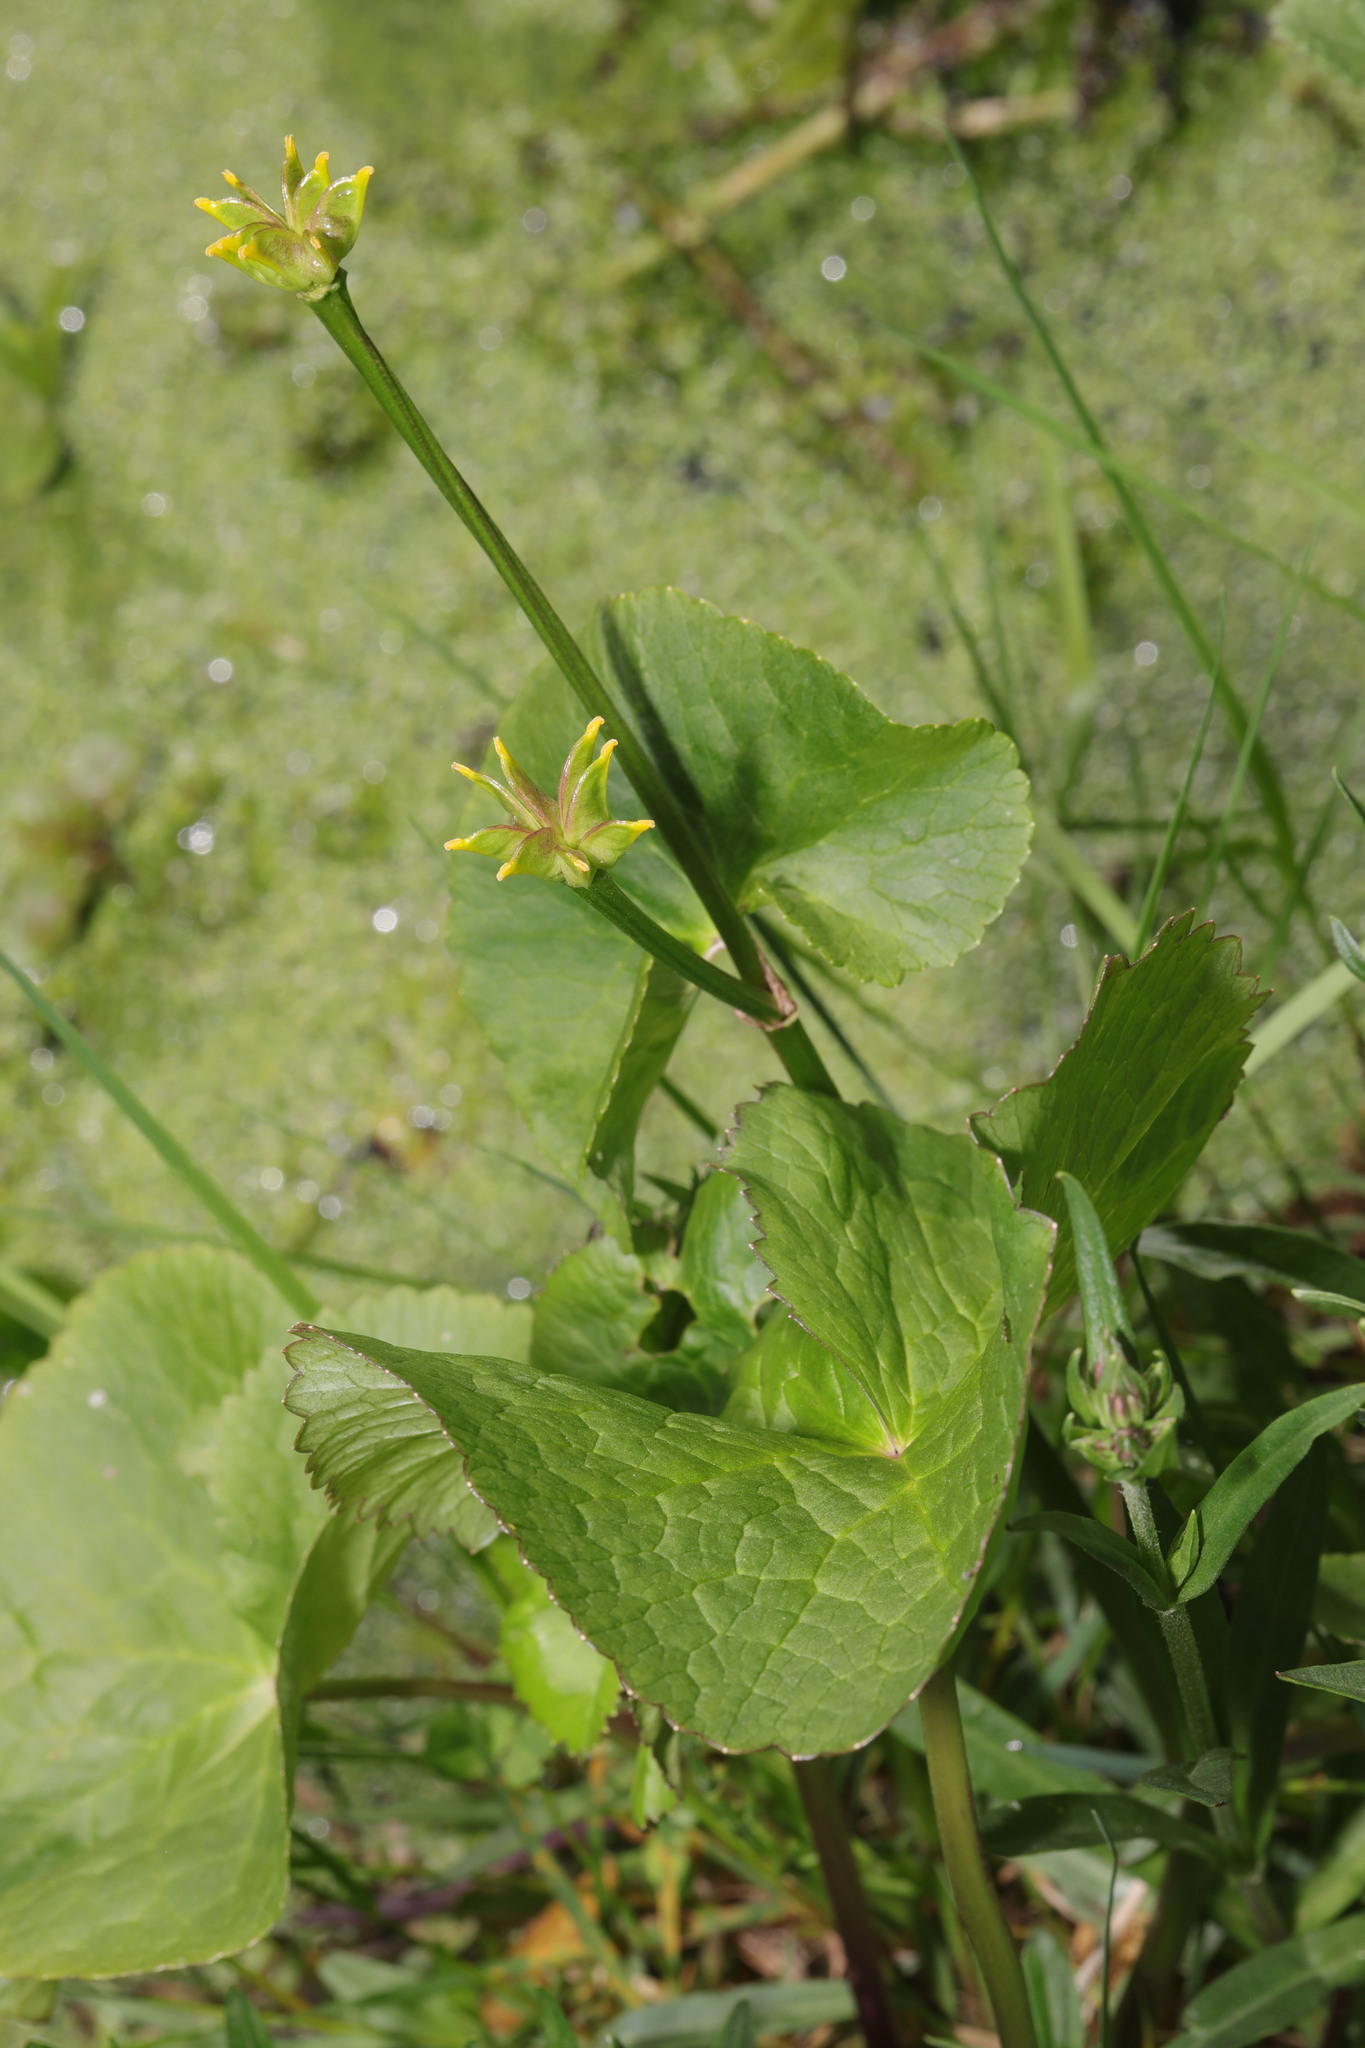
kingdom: Plantae
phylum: Tracheophyta
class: Magnoliopsida
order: Ranunculales
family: Ranunculaceae
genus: Caltha
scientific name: Caltha palustris
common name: Marsh marigold
